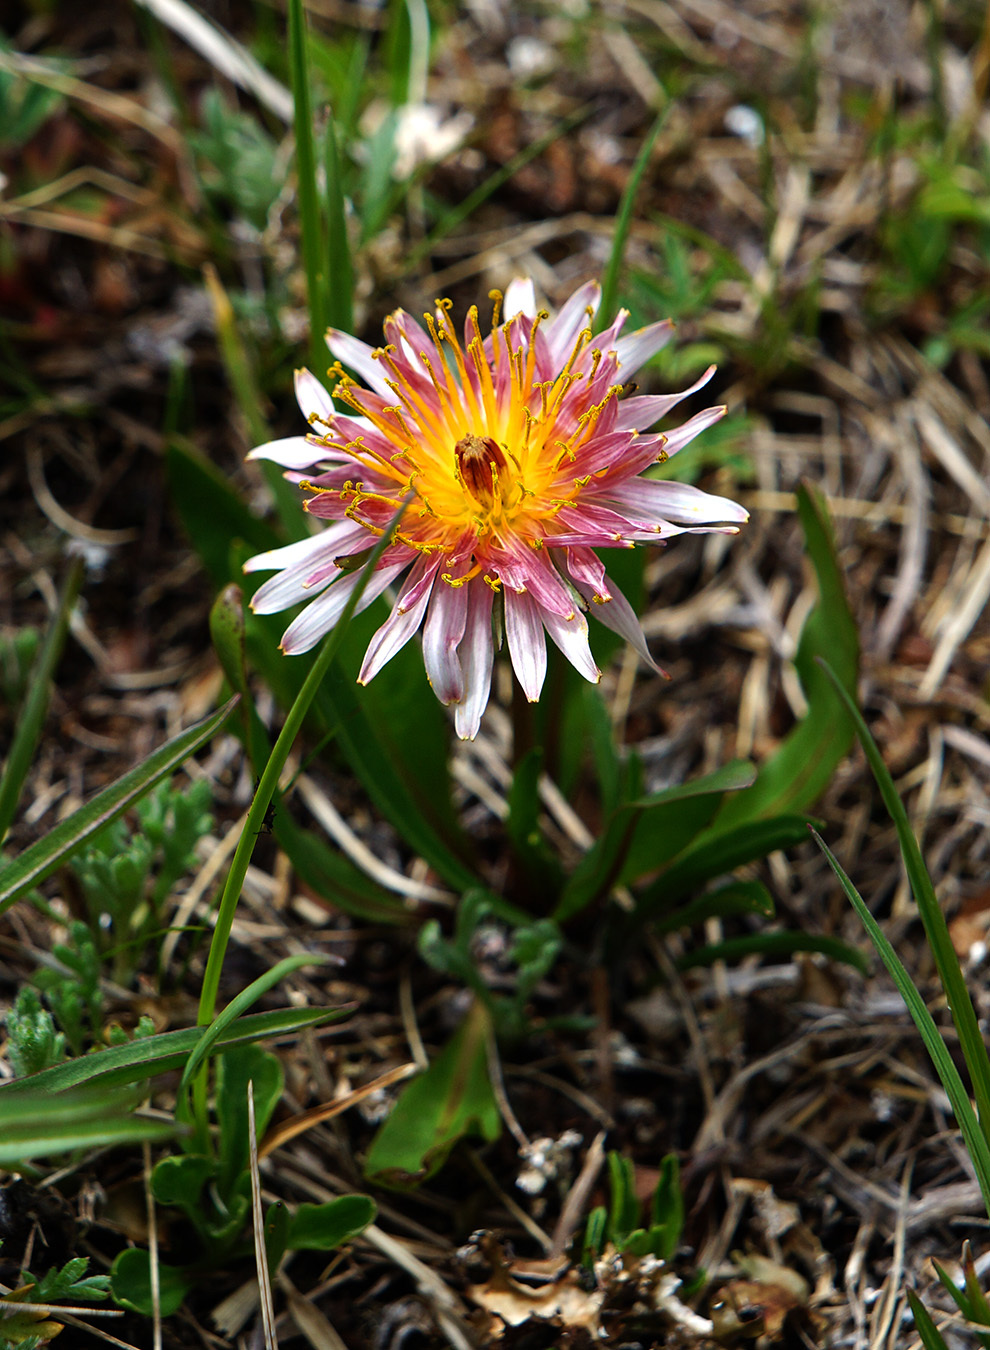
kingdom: Plantae
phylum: Tracheophyta
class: Magnoliopsida
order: Asterales
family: Asteraceae
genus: Taraxacum
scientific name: Taraxacum porphyranthum
